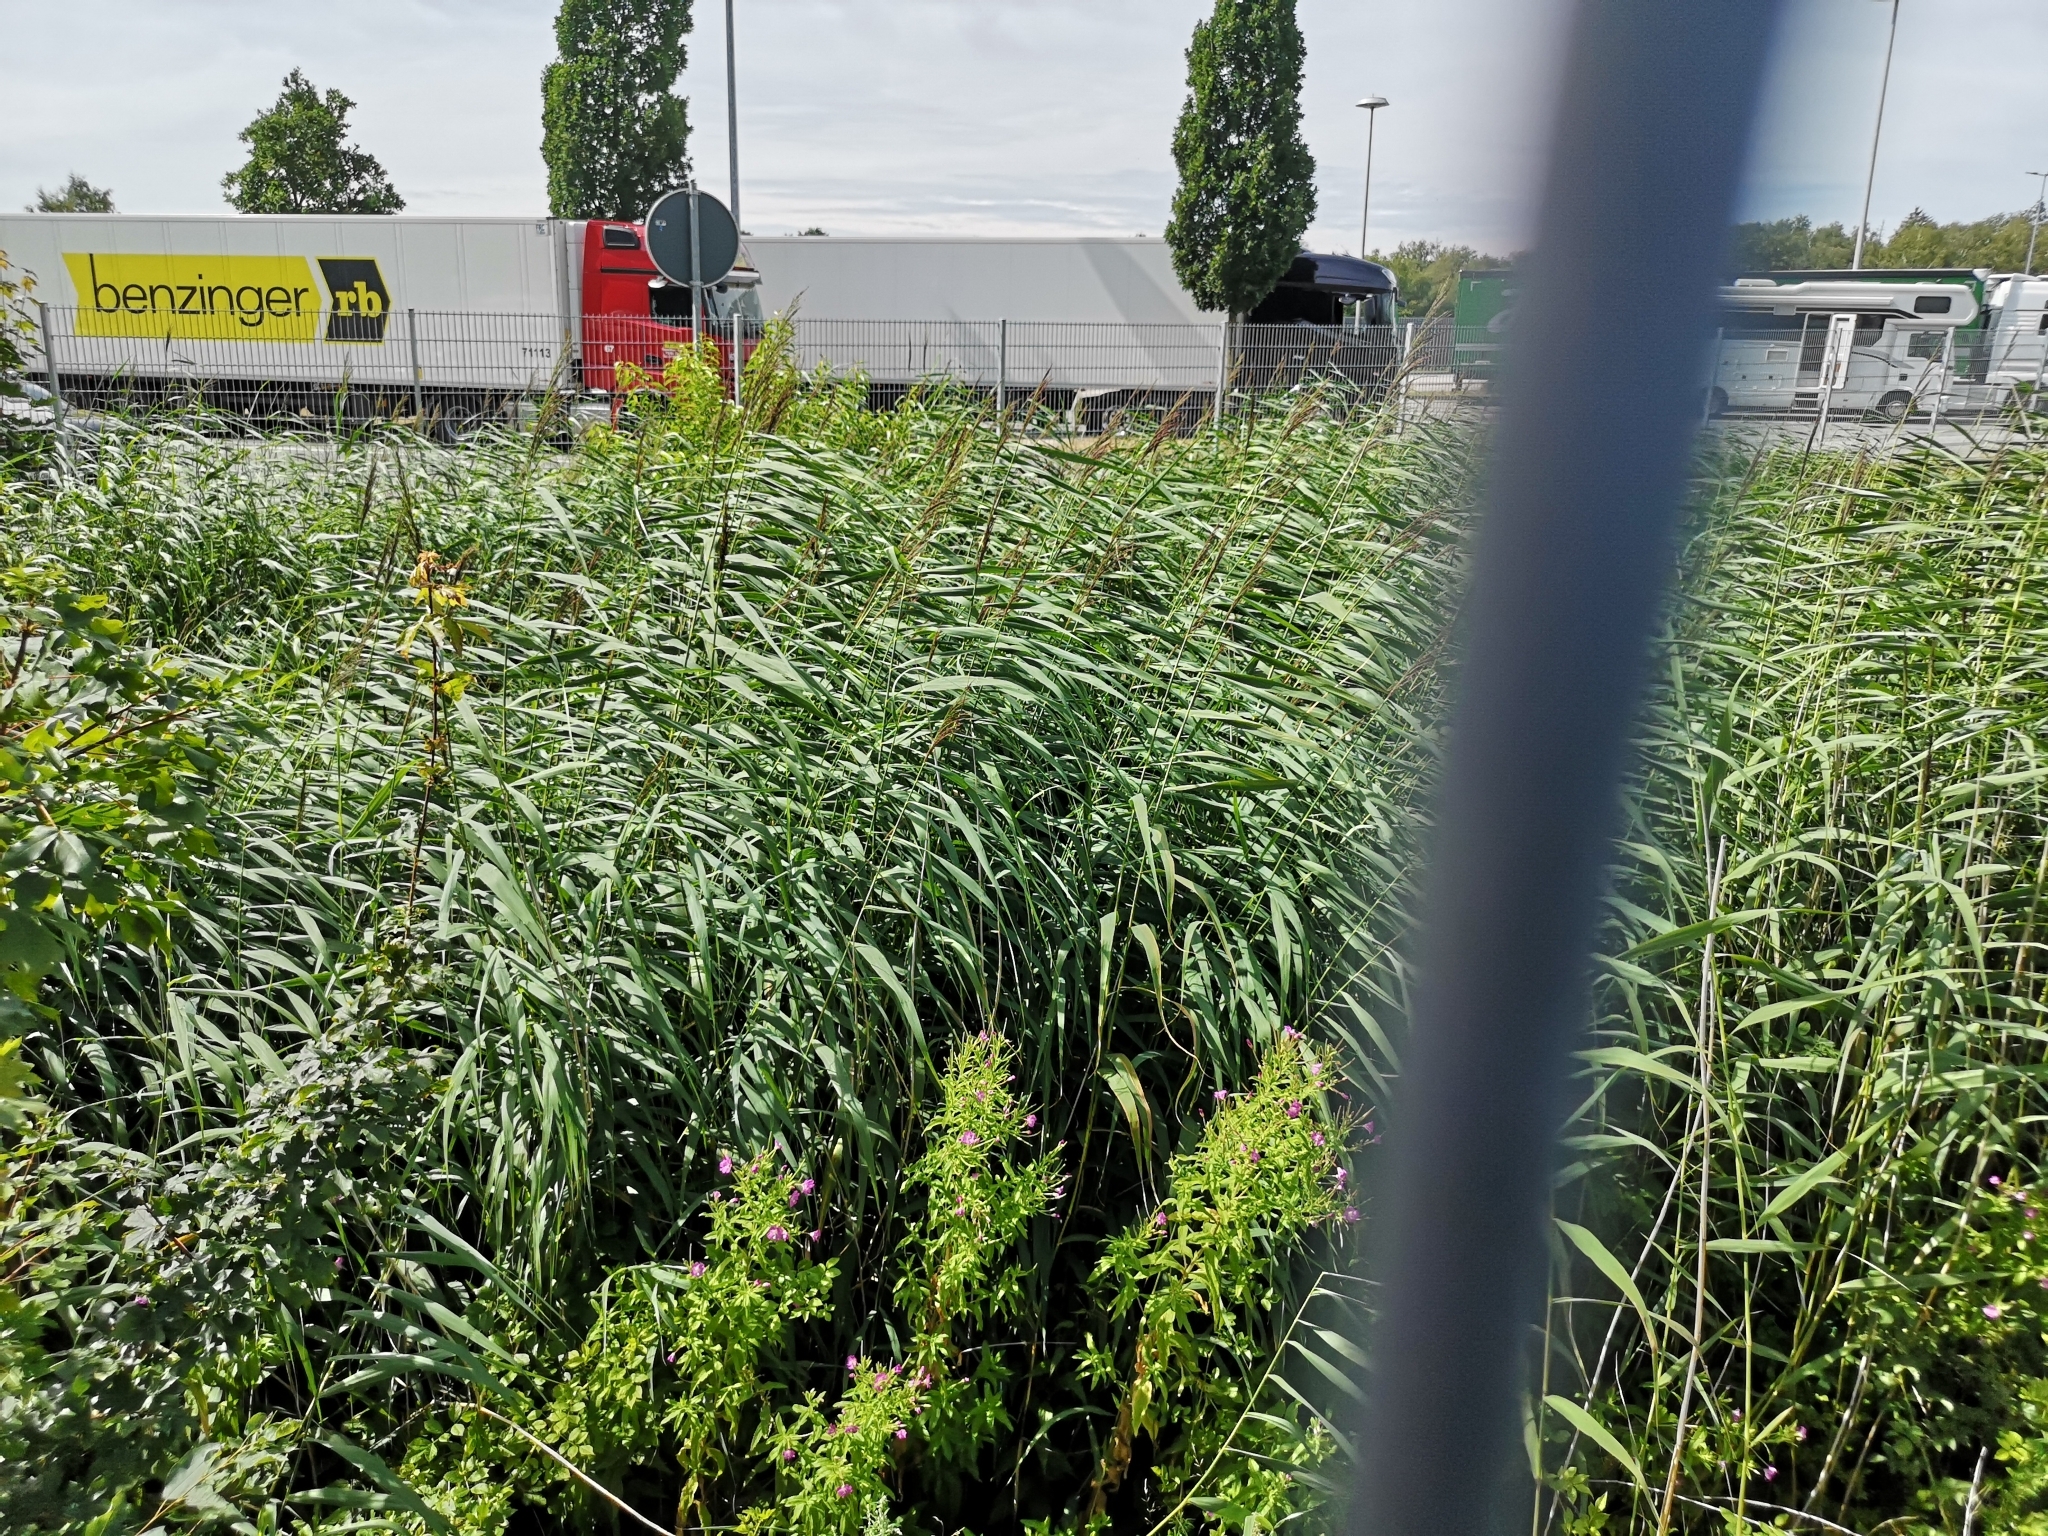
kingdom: Plantae
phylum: Tracheophyta
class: Liliopsida
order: Poales
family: Poaceae
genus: Phragmites
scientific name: Phragmites australis
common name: Common reed
